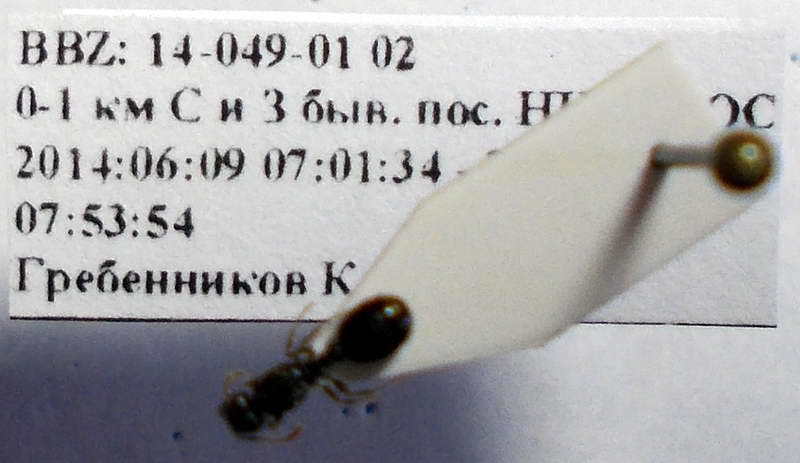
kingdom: Animalia
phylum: Arthropoda
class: Insecta
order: Hymenoptera
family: Formicidae
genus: Tetramorium
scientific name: Tetramorium chefketi
